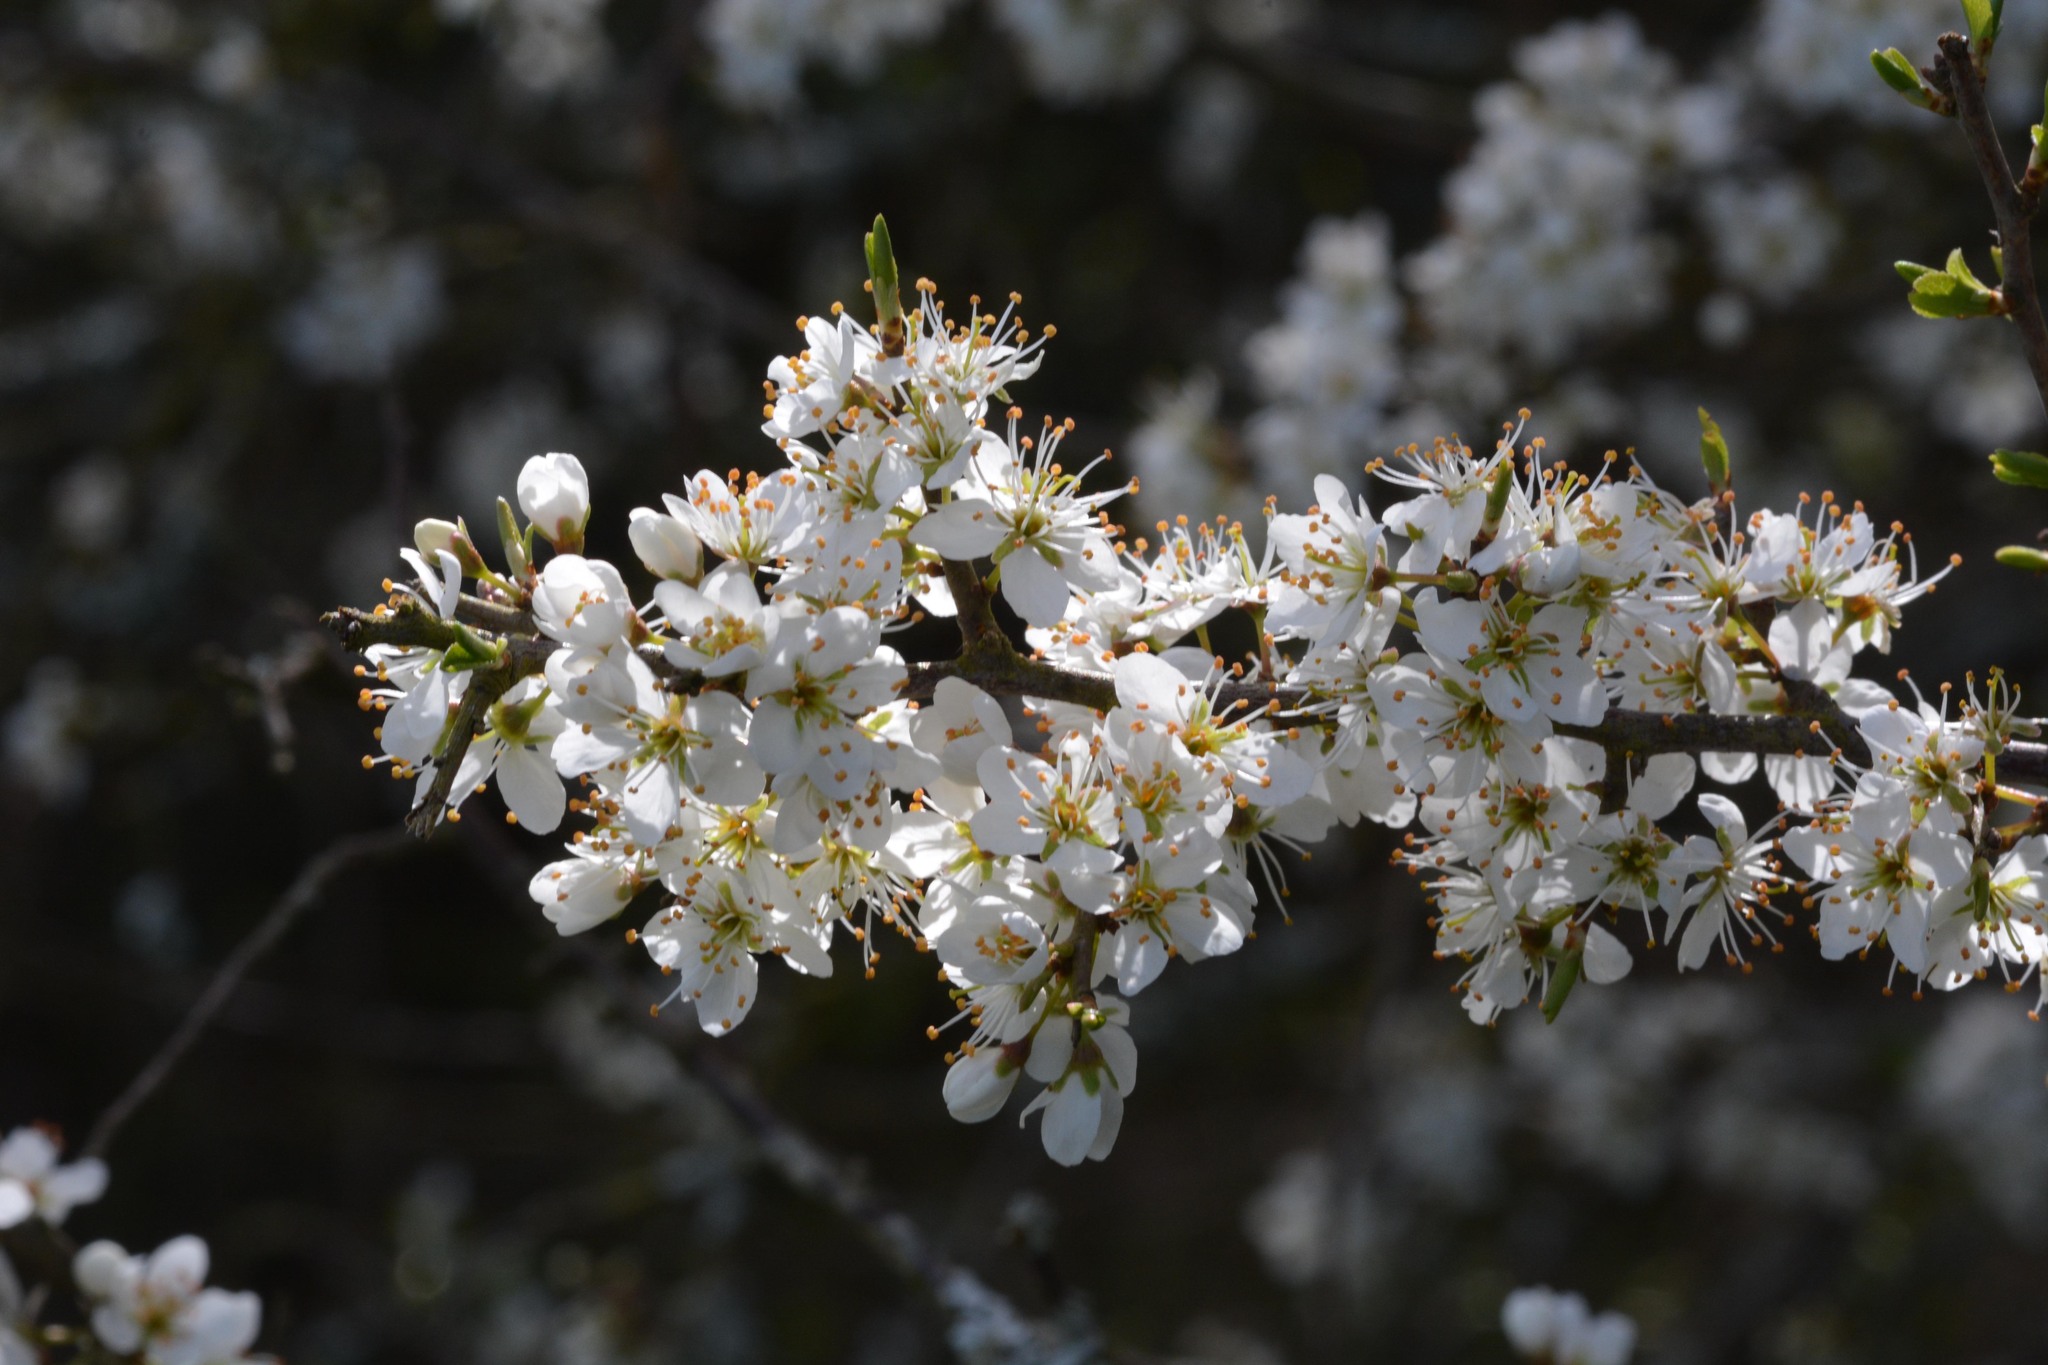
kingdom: Plantae
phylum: Tracheophyta
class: Magnoliopsida
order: Rosales
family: Rosaceae
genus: Prunus
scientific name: Prunus spinosa
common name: Blackthorn
